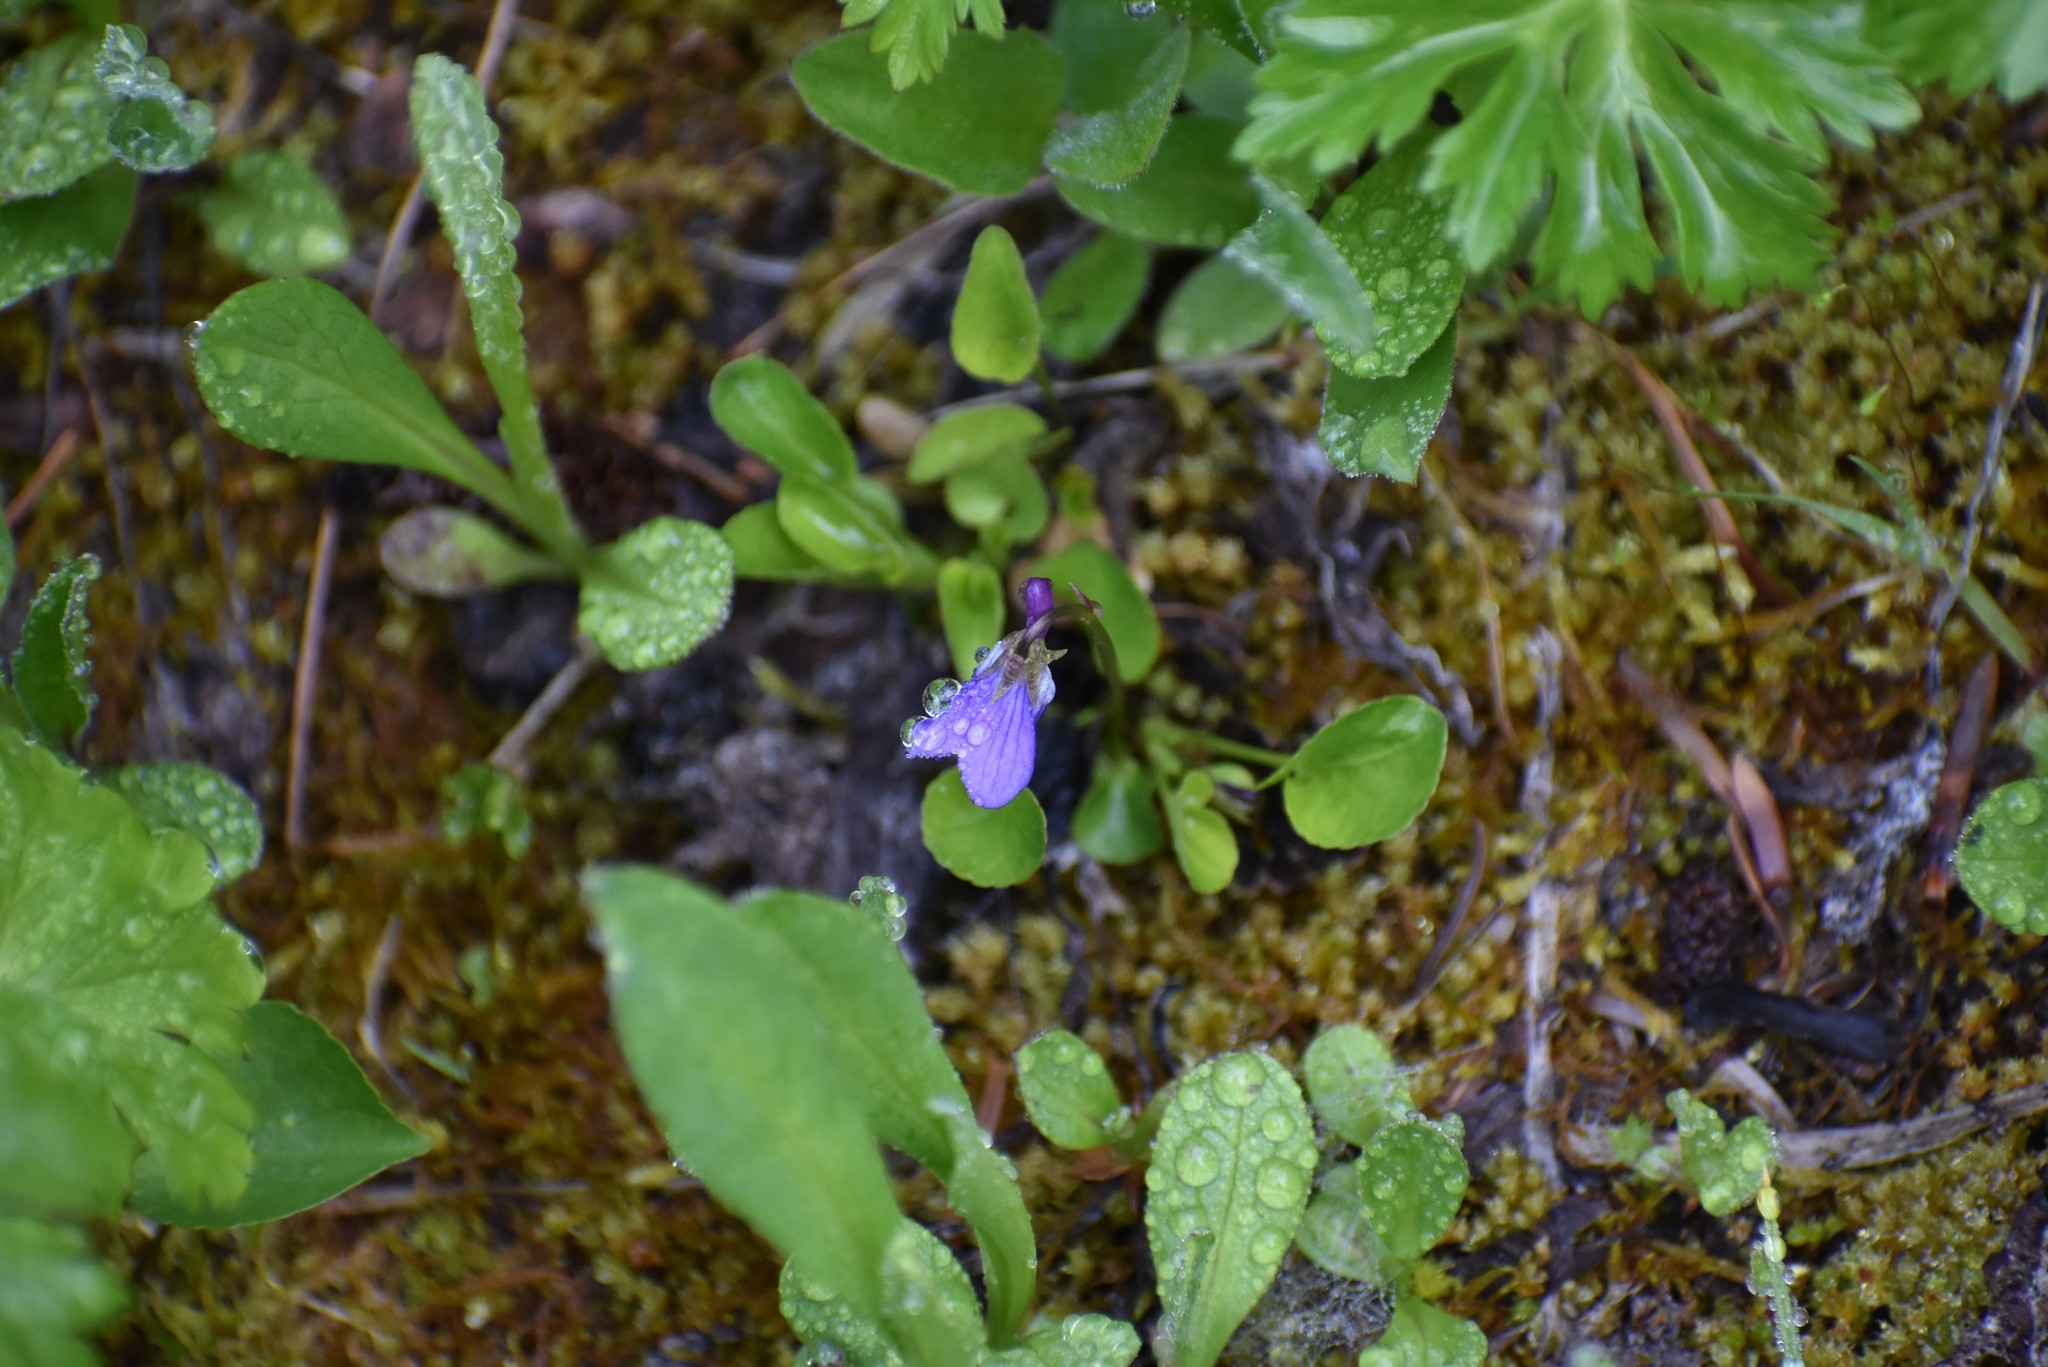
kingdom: Plantae
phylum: Tracheophyta
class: Magnoliopsida
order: Malpighiales
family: Violaceae
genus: Viola
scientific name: Viola adunca
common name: Sand violet
